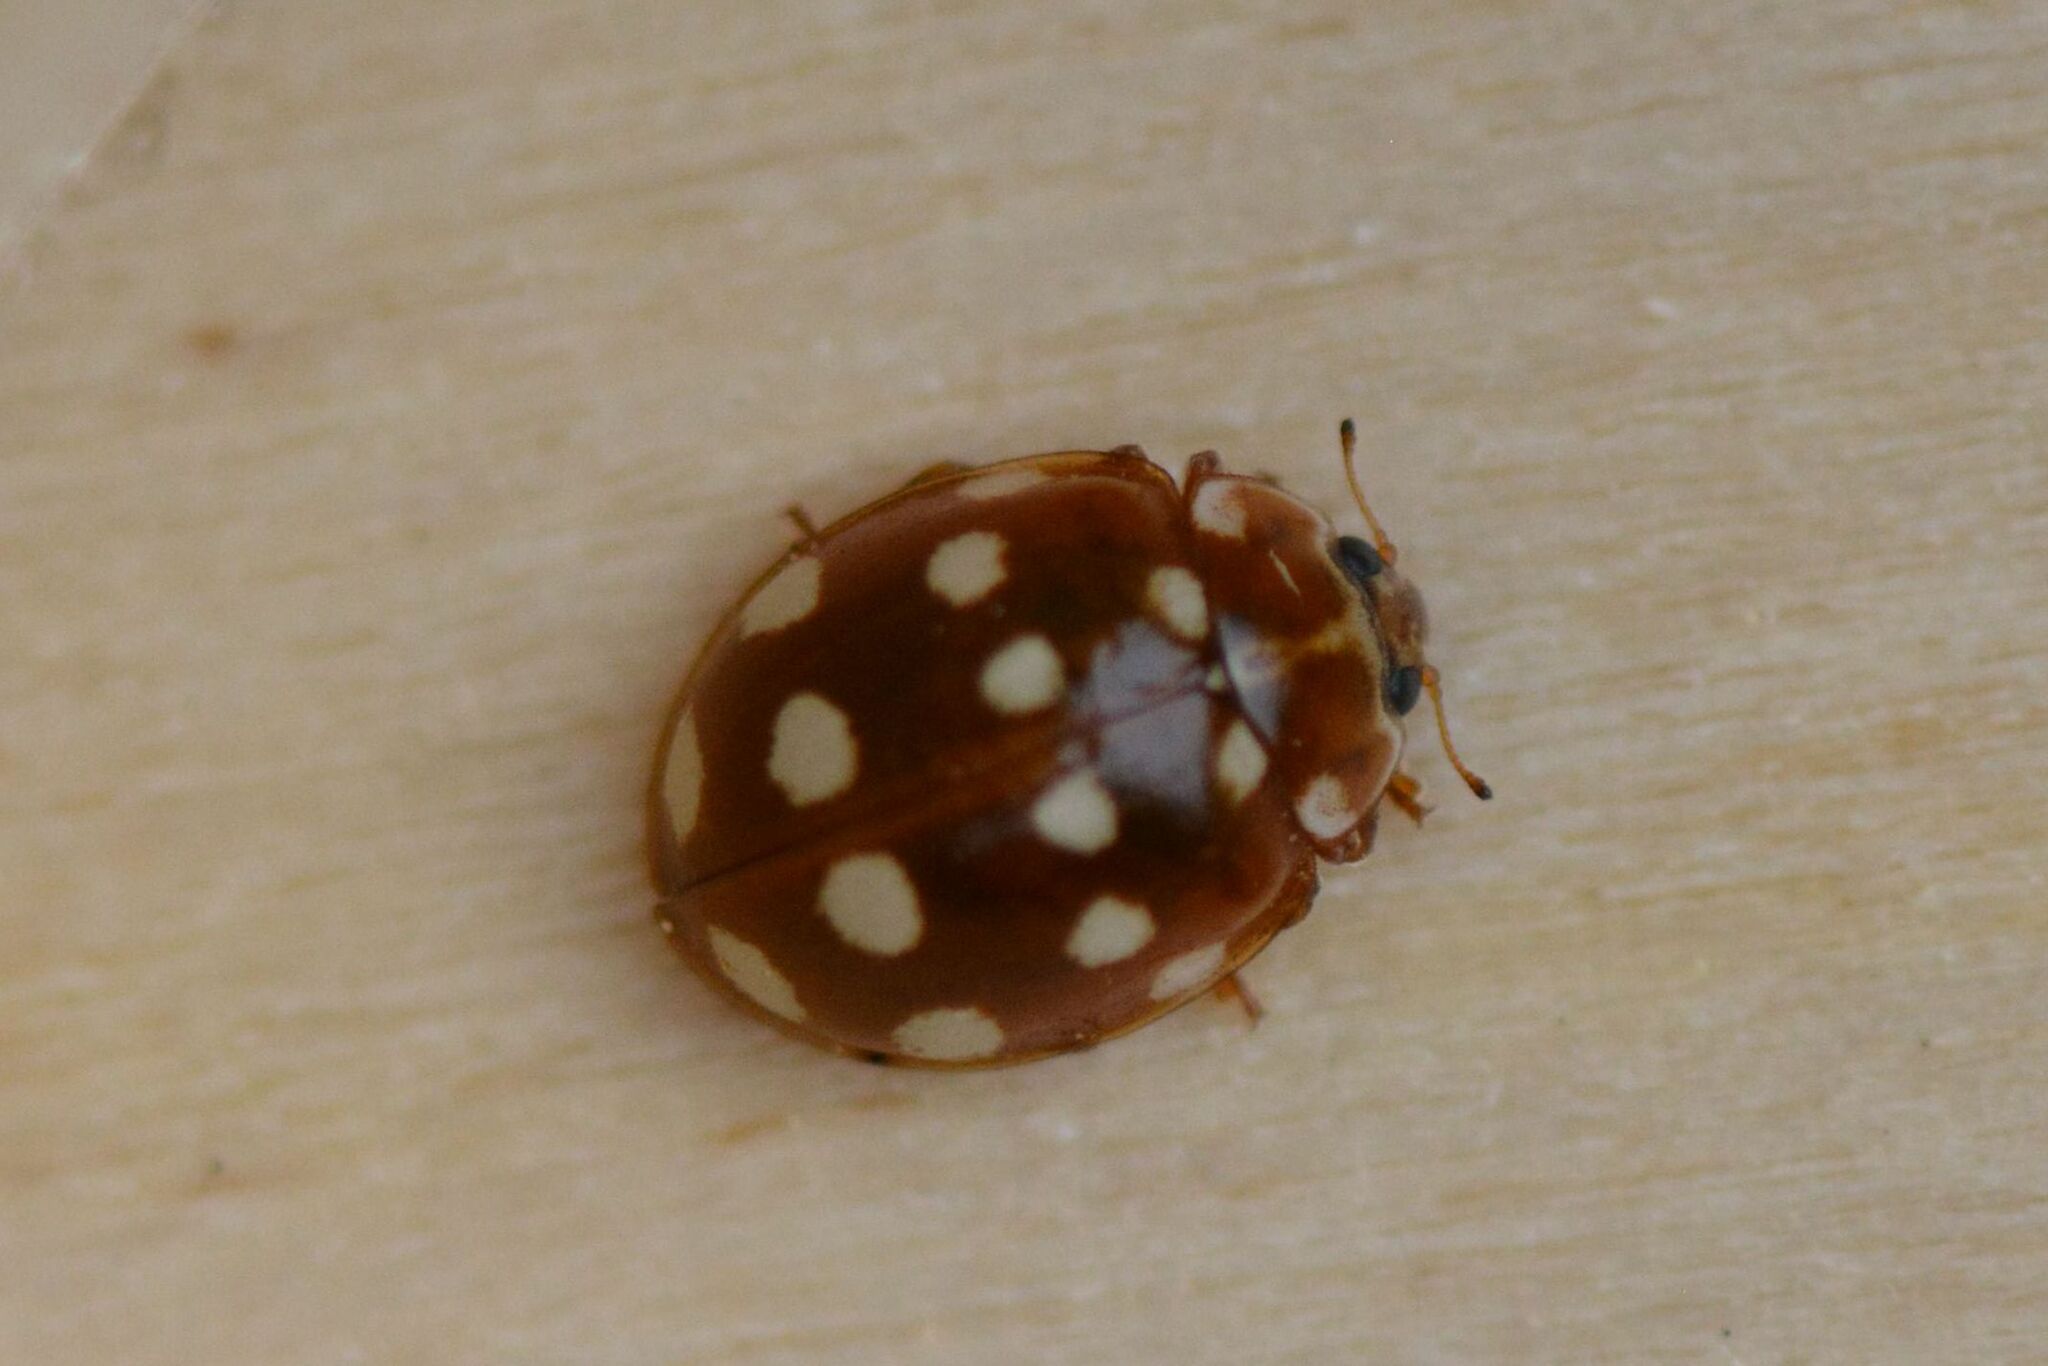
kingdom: Animalia
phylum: Arthropoda
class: Insecta
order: Coleoptera
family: Coccinellidae
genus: Calvia
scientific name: Calvia quatuordecimguttata
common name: Cream-spot ladybird
